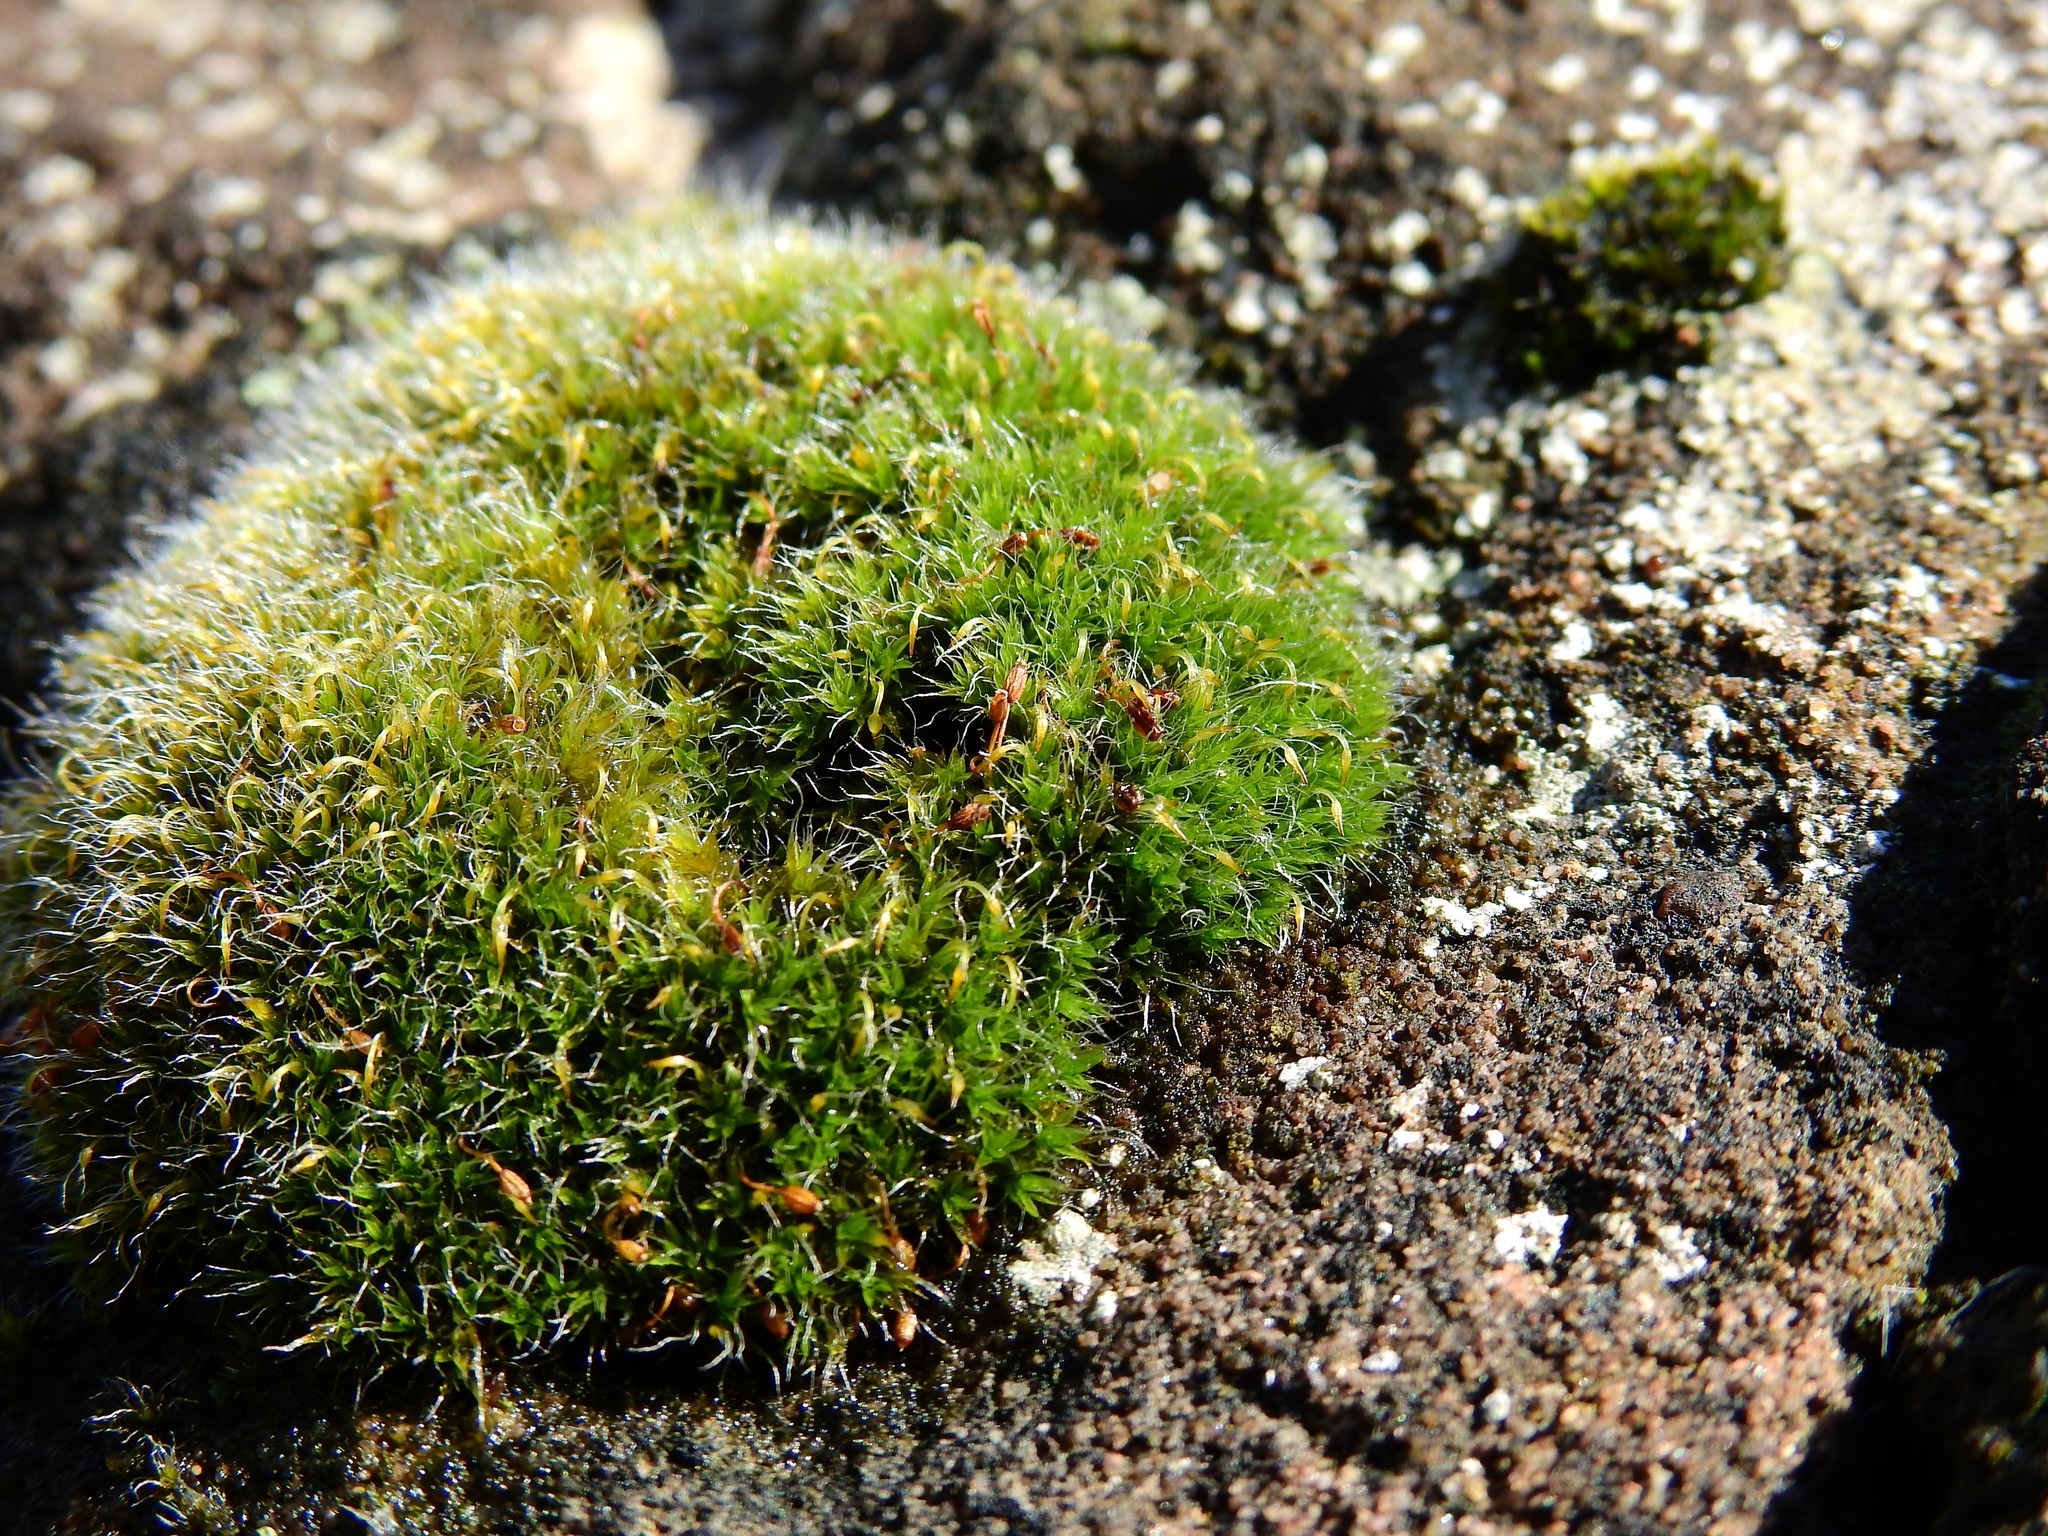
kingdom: Plantae
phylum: Bryophyta
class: Bryopsida
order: Grimmiales
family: Grimmiaceae
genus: Grimmia
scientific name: Grimmia pulvinata
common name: Grey-cushioned grimmia
